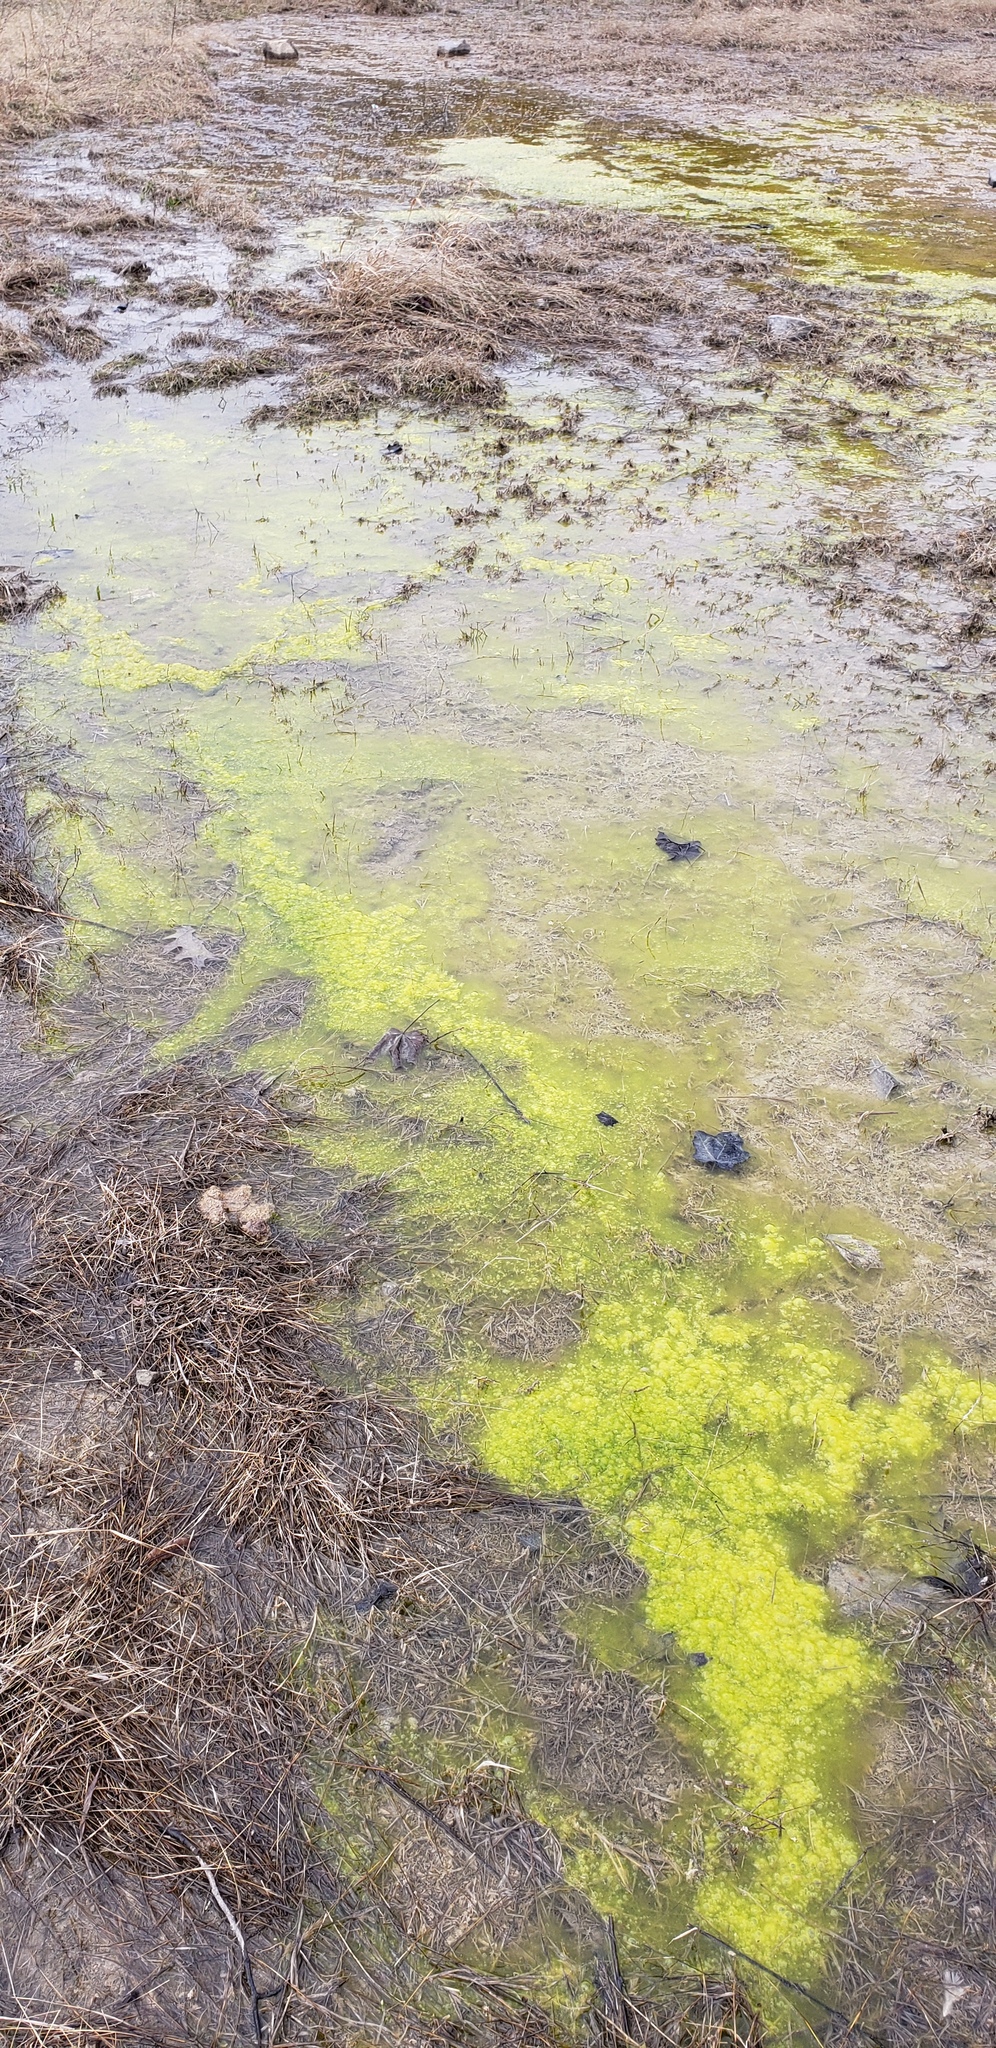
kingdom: Plantae
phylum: Charophyta
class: Zygnematophyceae
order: Zygnematales
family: Zygnemataceae
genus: Zygnema
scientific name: Zygnema
